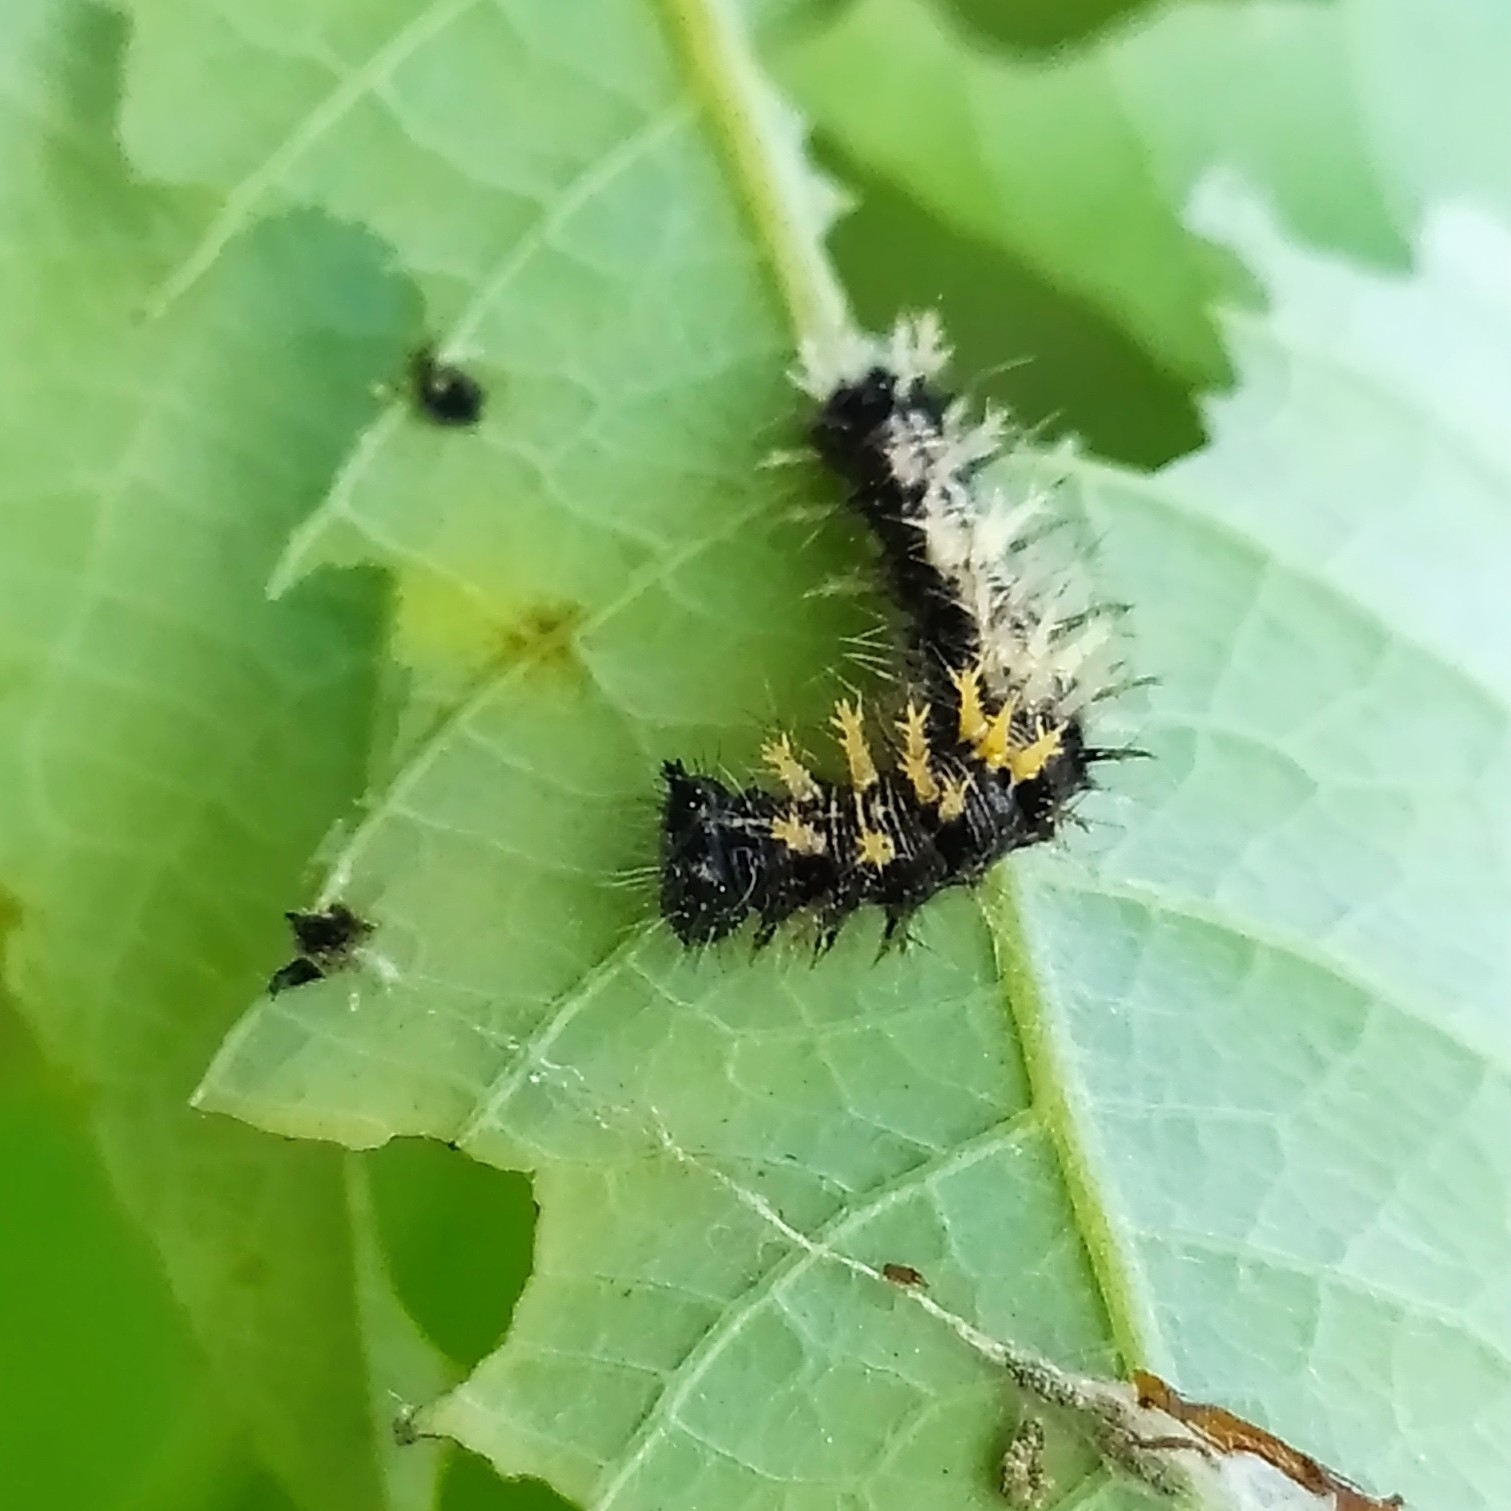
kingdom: Animalia
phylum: Arthropoda
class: Insecta
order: Lepidoptera
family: Nymphalidae
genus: Polygonia
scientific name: Polygonia c-album
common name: Comma
